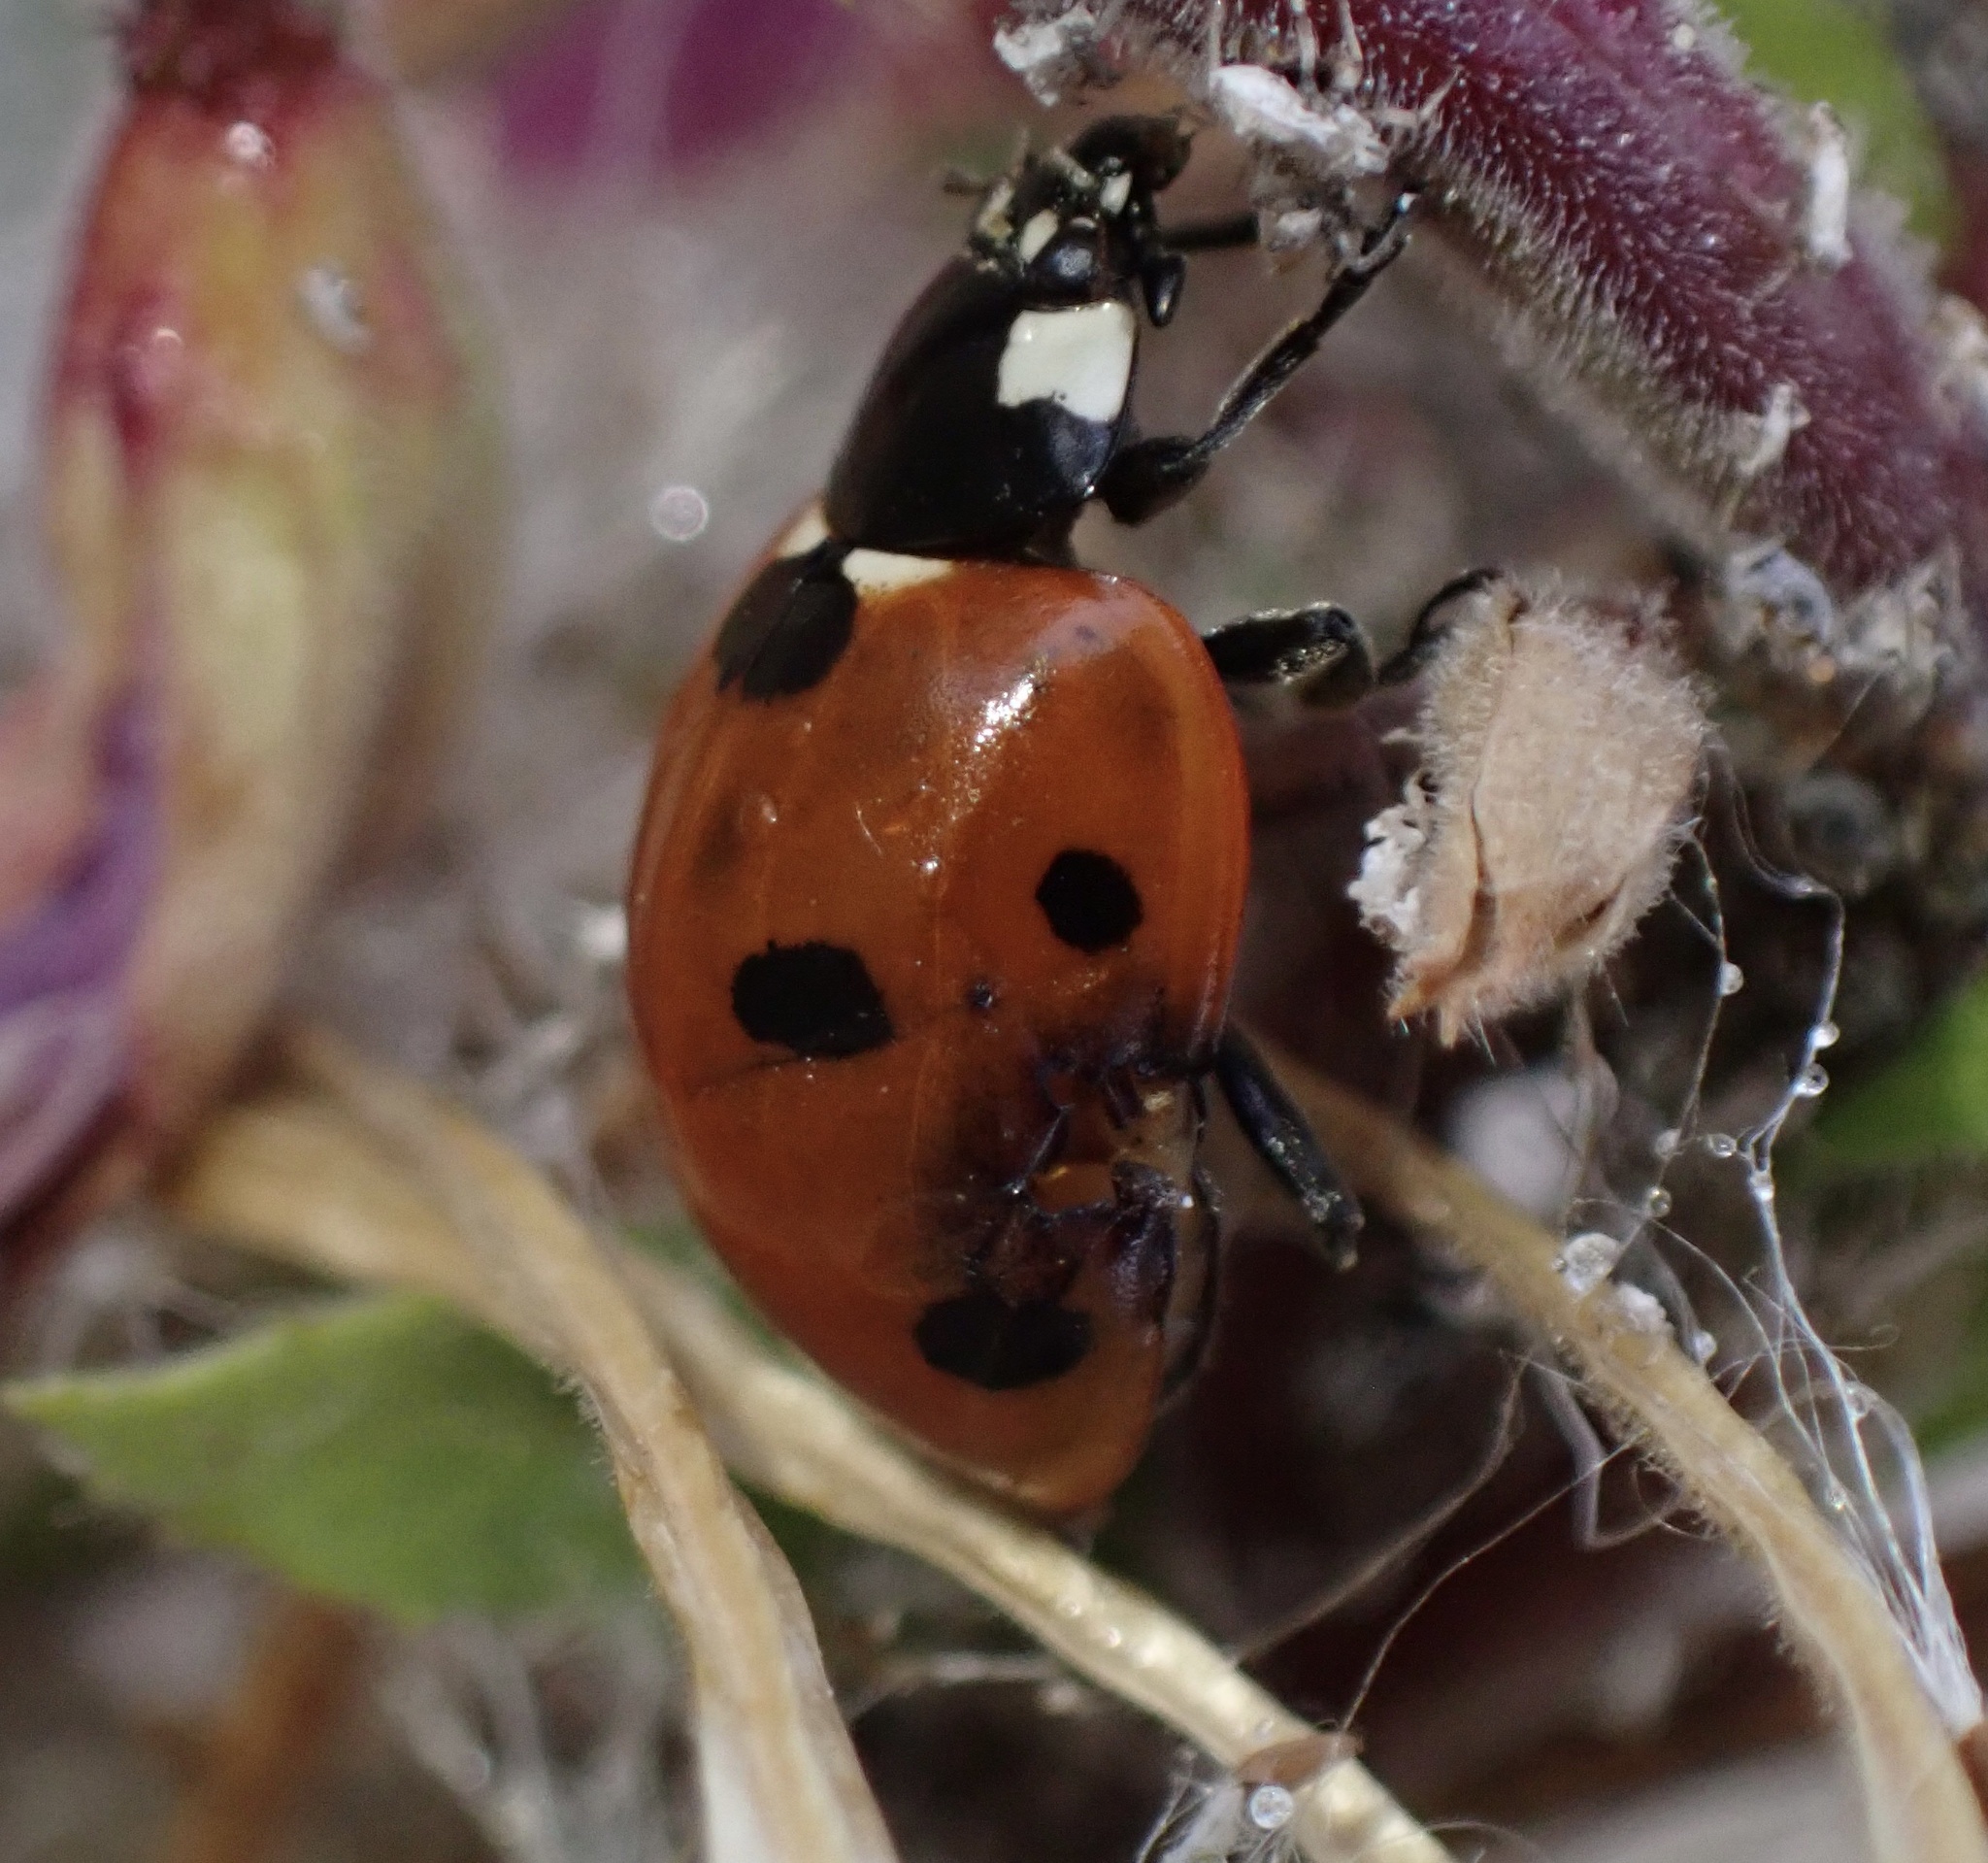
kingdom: Animalia
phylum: Arthropoda
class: Insecta
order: Coleoptera
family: Coccinellidae
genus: Coccinella
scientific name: Coccinella septempunctata
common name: Sevenspotted lady beetle
